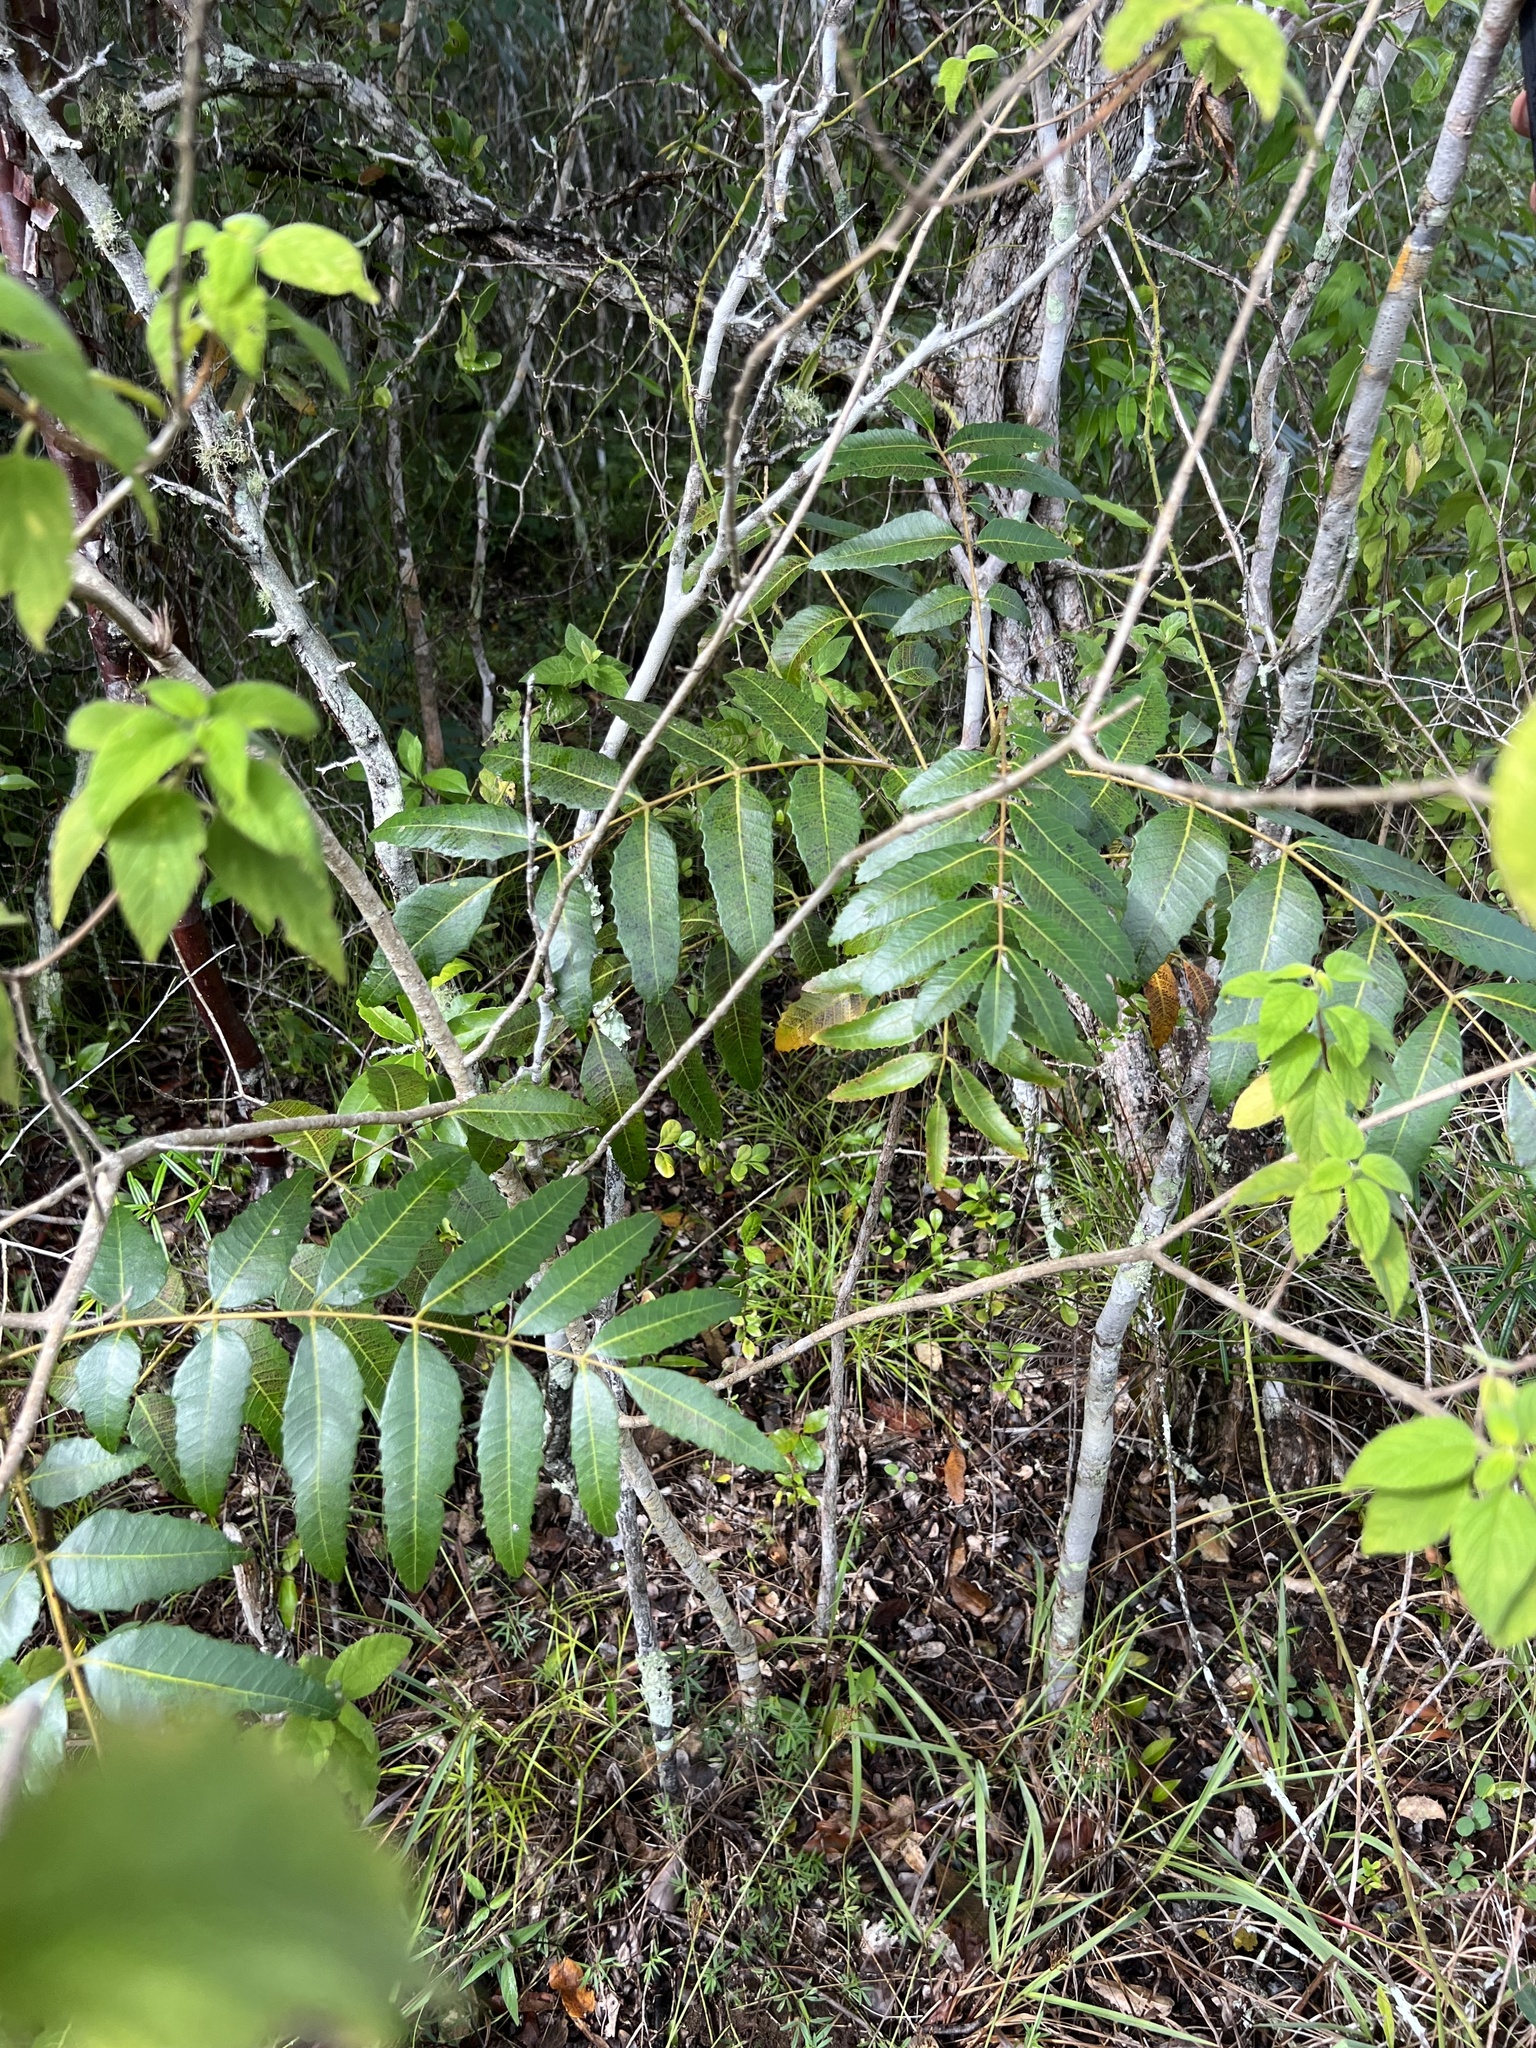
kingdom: Plantae
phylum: Tracheophyta
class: Magnoliopsida
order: Sapindales
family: Anacardiaceae
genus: Comocladia
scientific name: Comocladia dentata
